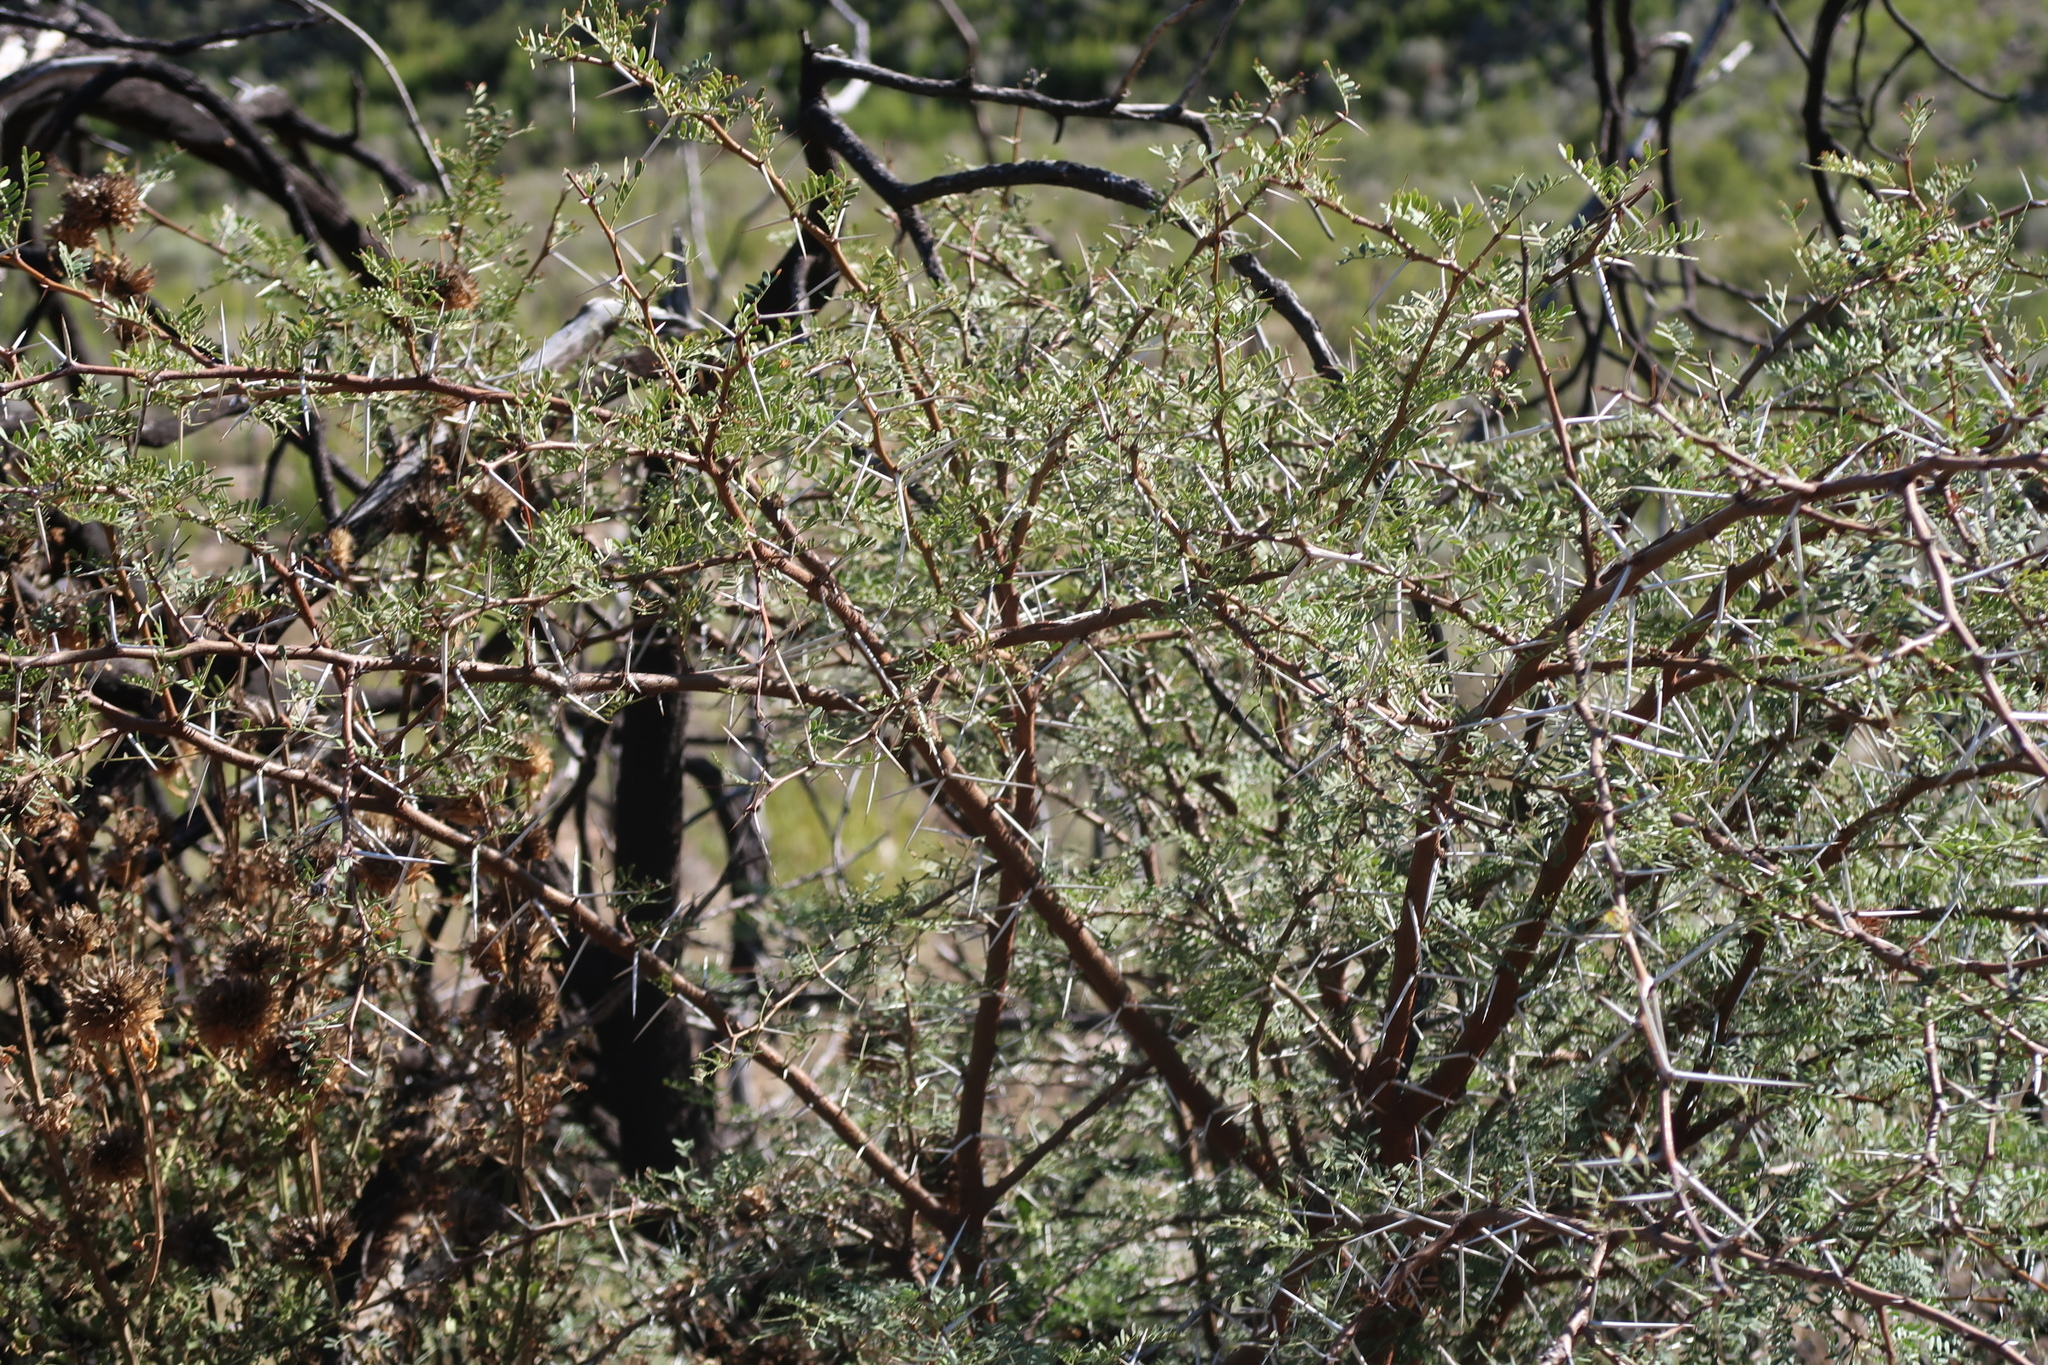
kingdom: Plantae
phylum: Tracheophyta
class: Magnoliopsida
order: Fabales
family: Fabaceae
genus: Vachellia
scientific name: Vachellia karroo
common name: Sweet thorn
